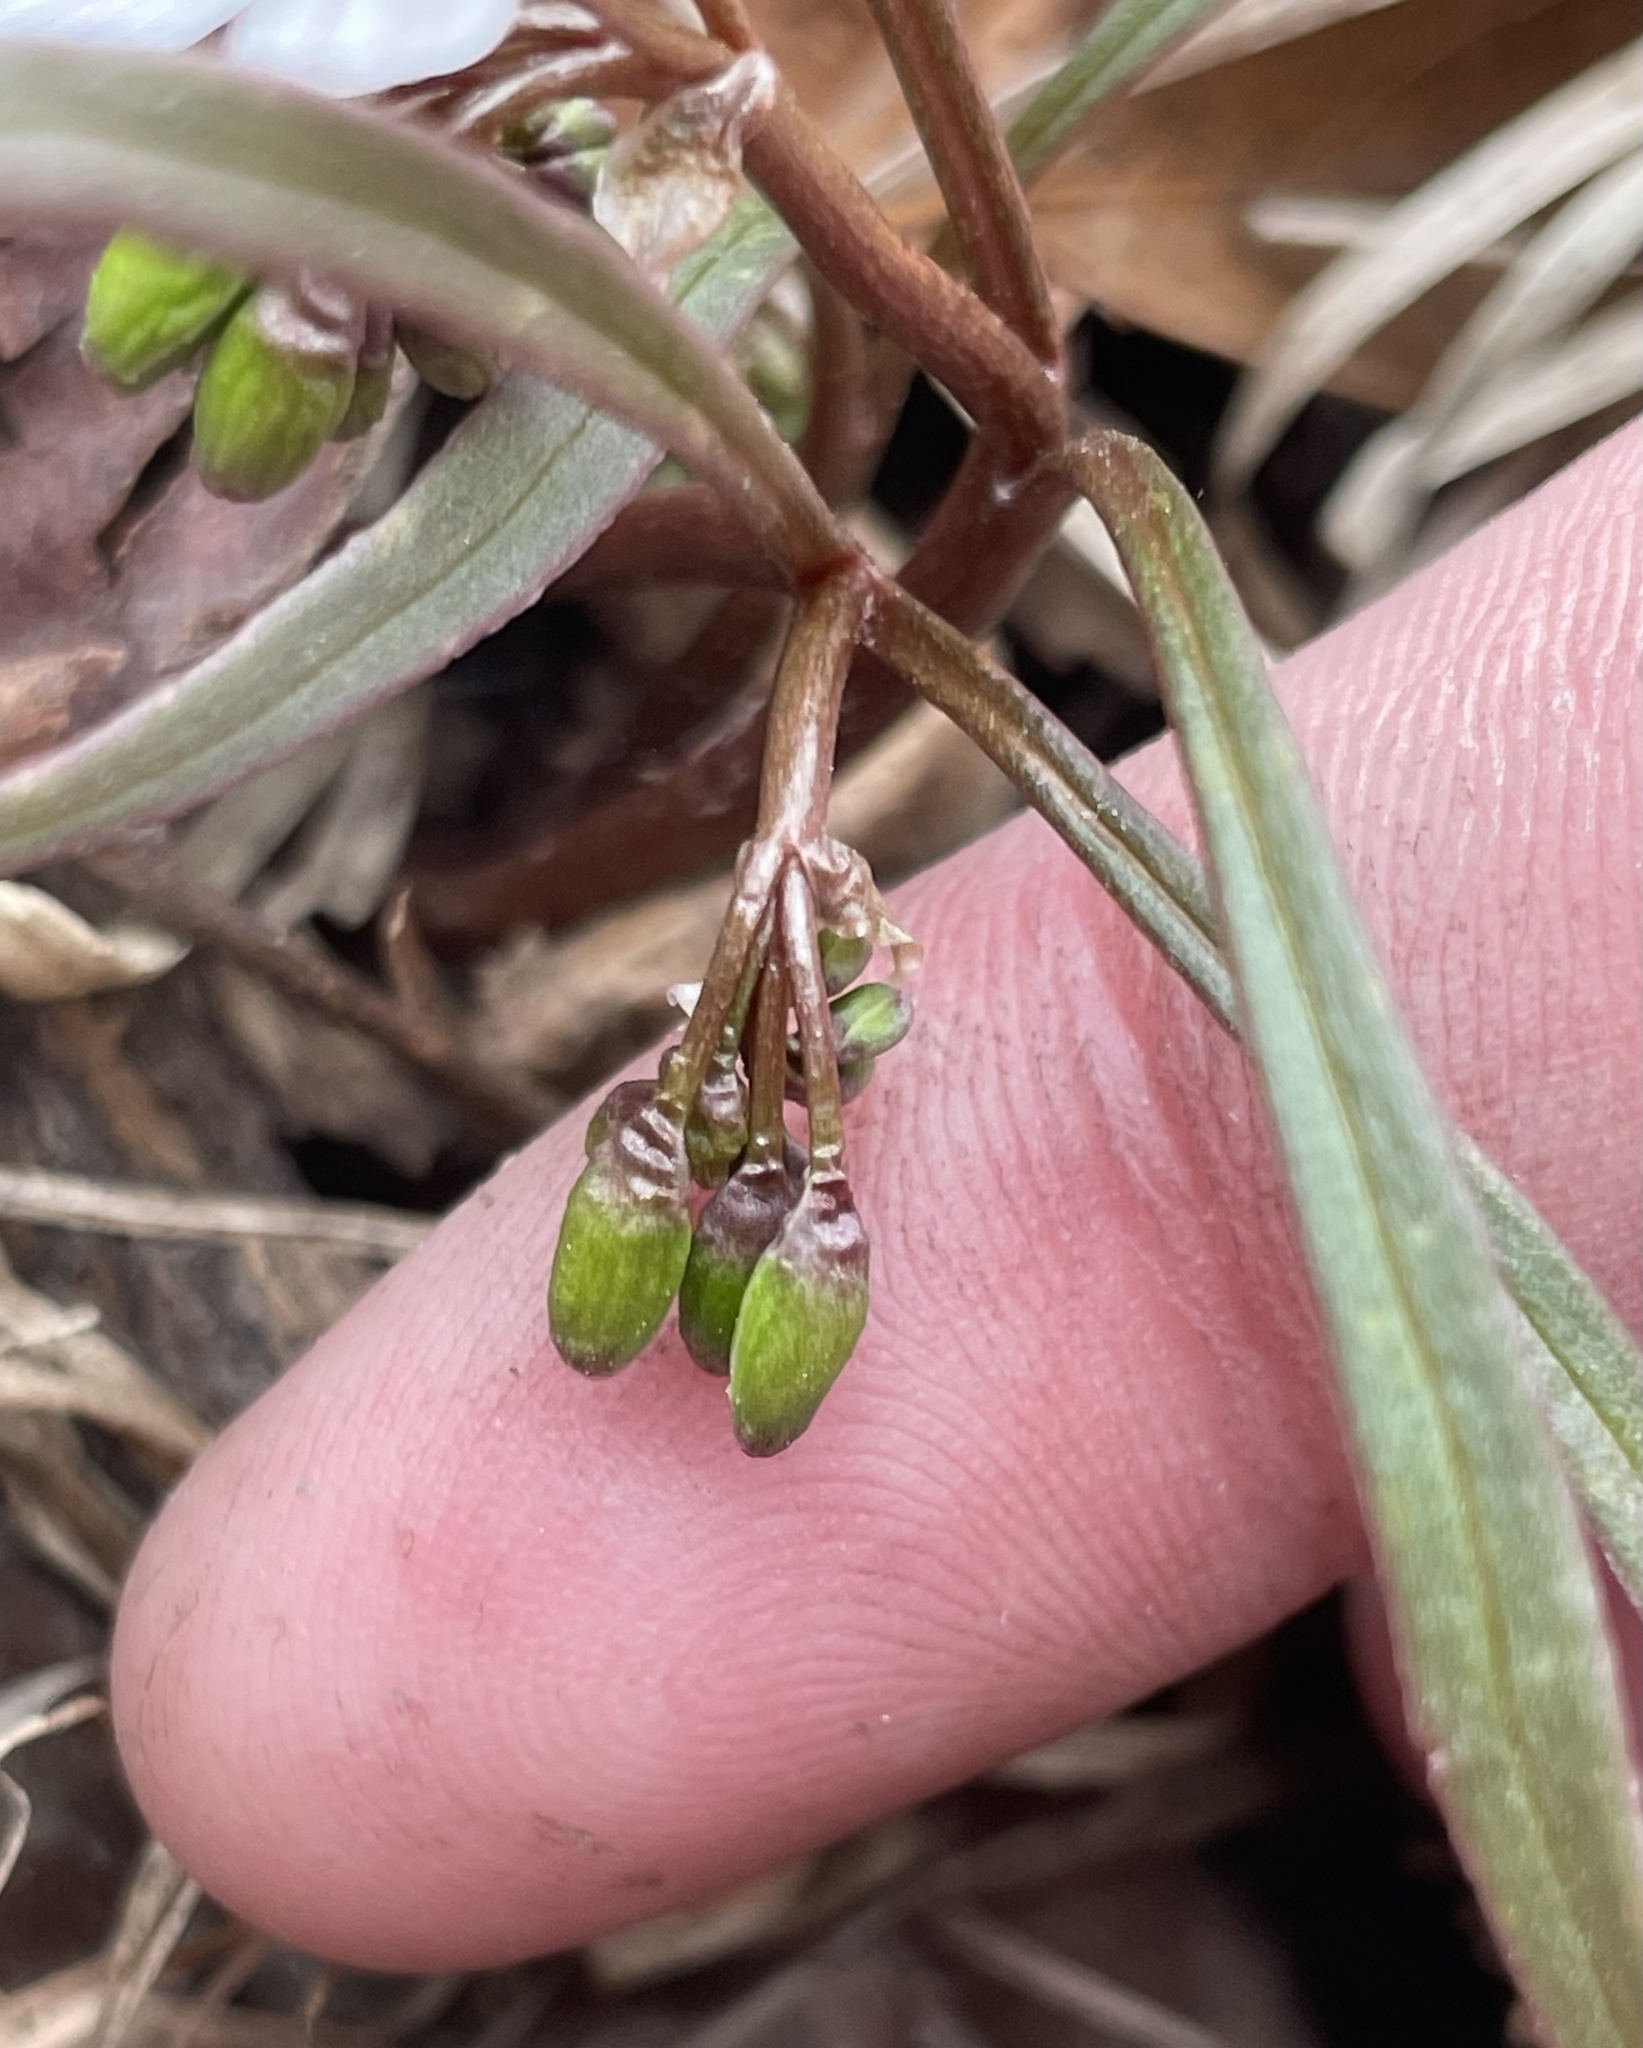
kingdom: Plantae
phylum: Tracheophyta
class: Magnoliopsida
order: Caryophyllales
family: Montiaceae
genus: Claytonia
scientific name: Claytonia virginica
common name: Virginia springbeauty
